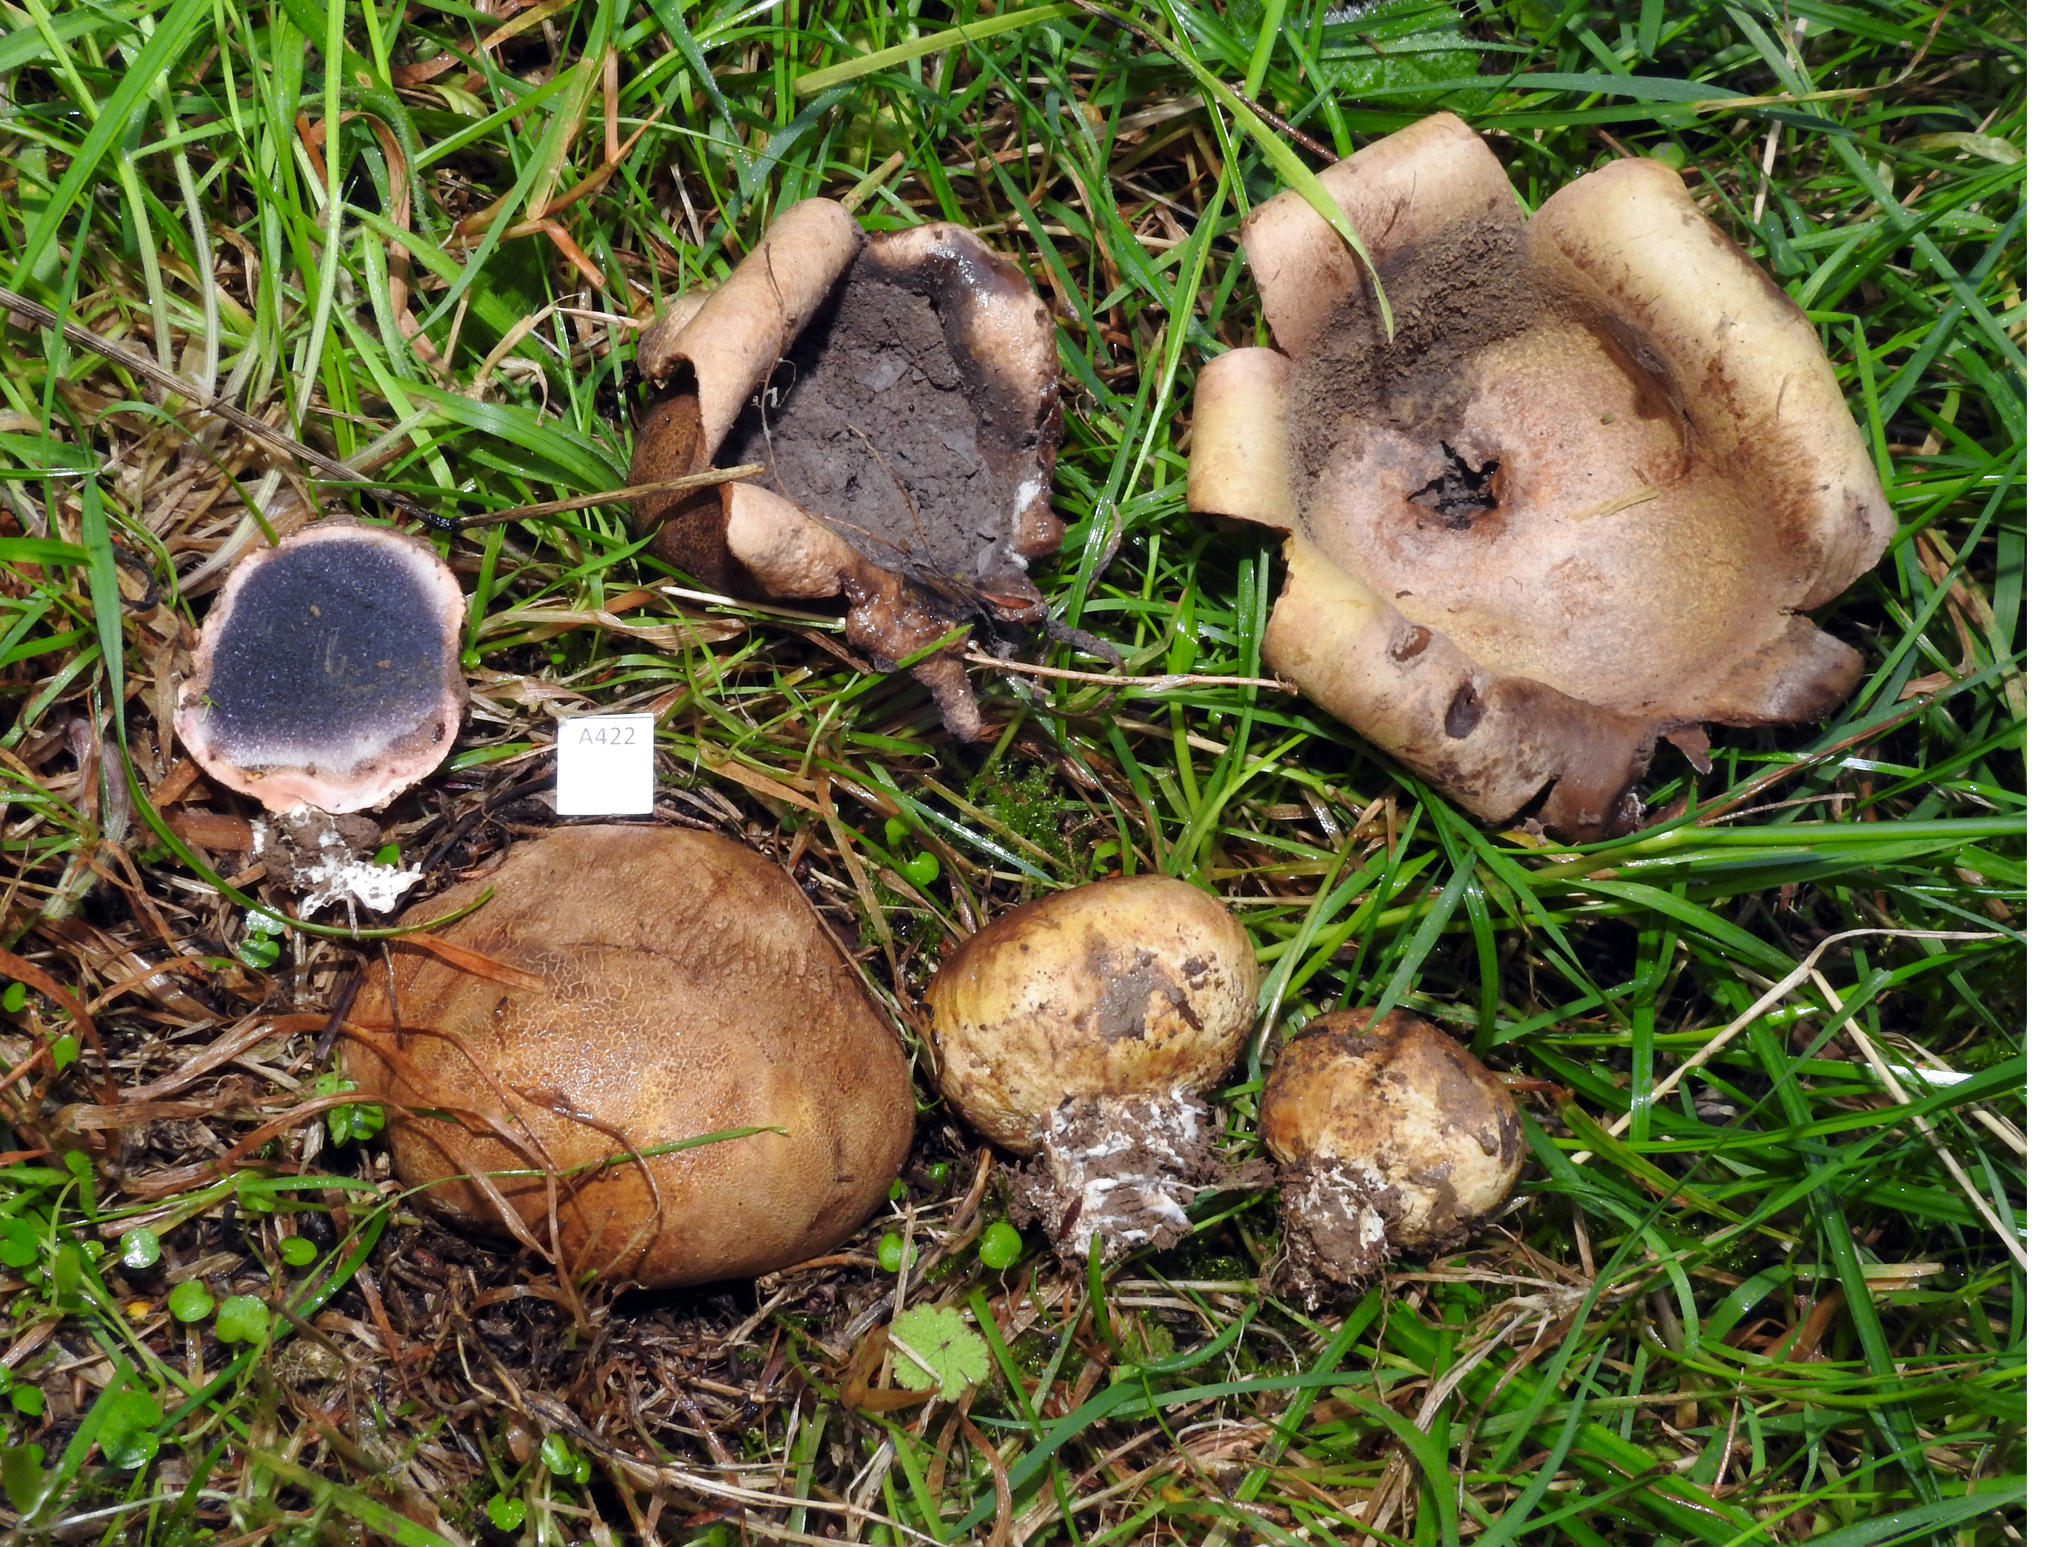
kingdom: Fungi
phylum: Basidiomycota
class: Agaricomycetes
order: Boletales
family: Sclerodermataceae
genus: Scleroderma
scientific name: Scleroderma
